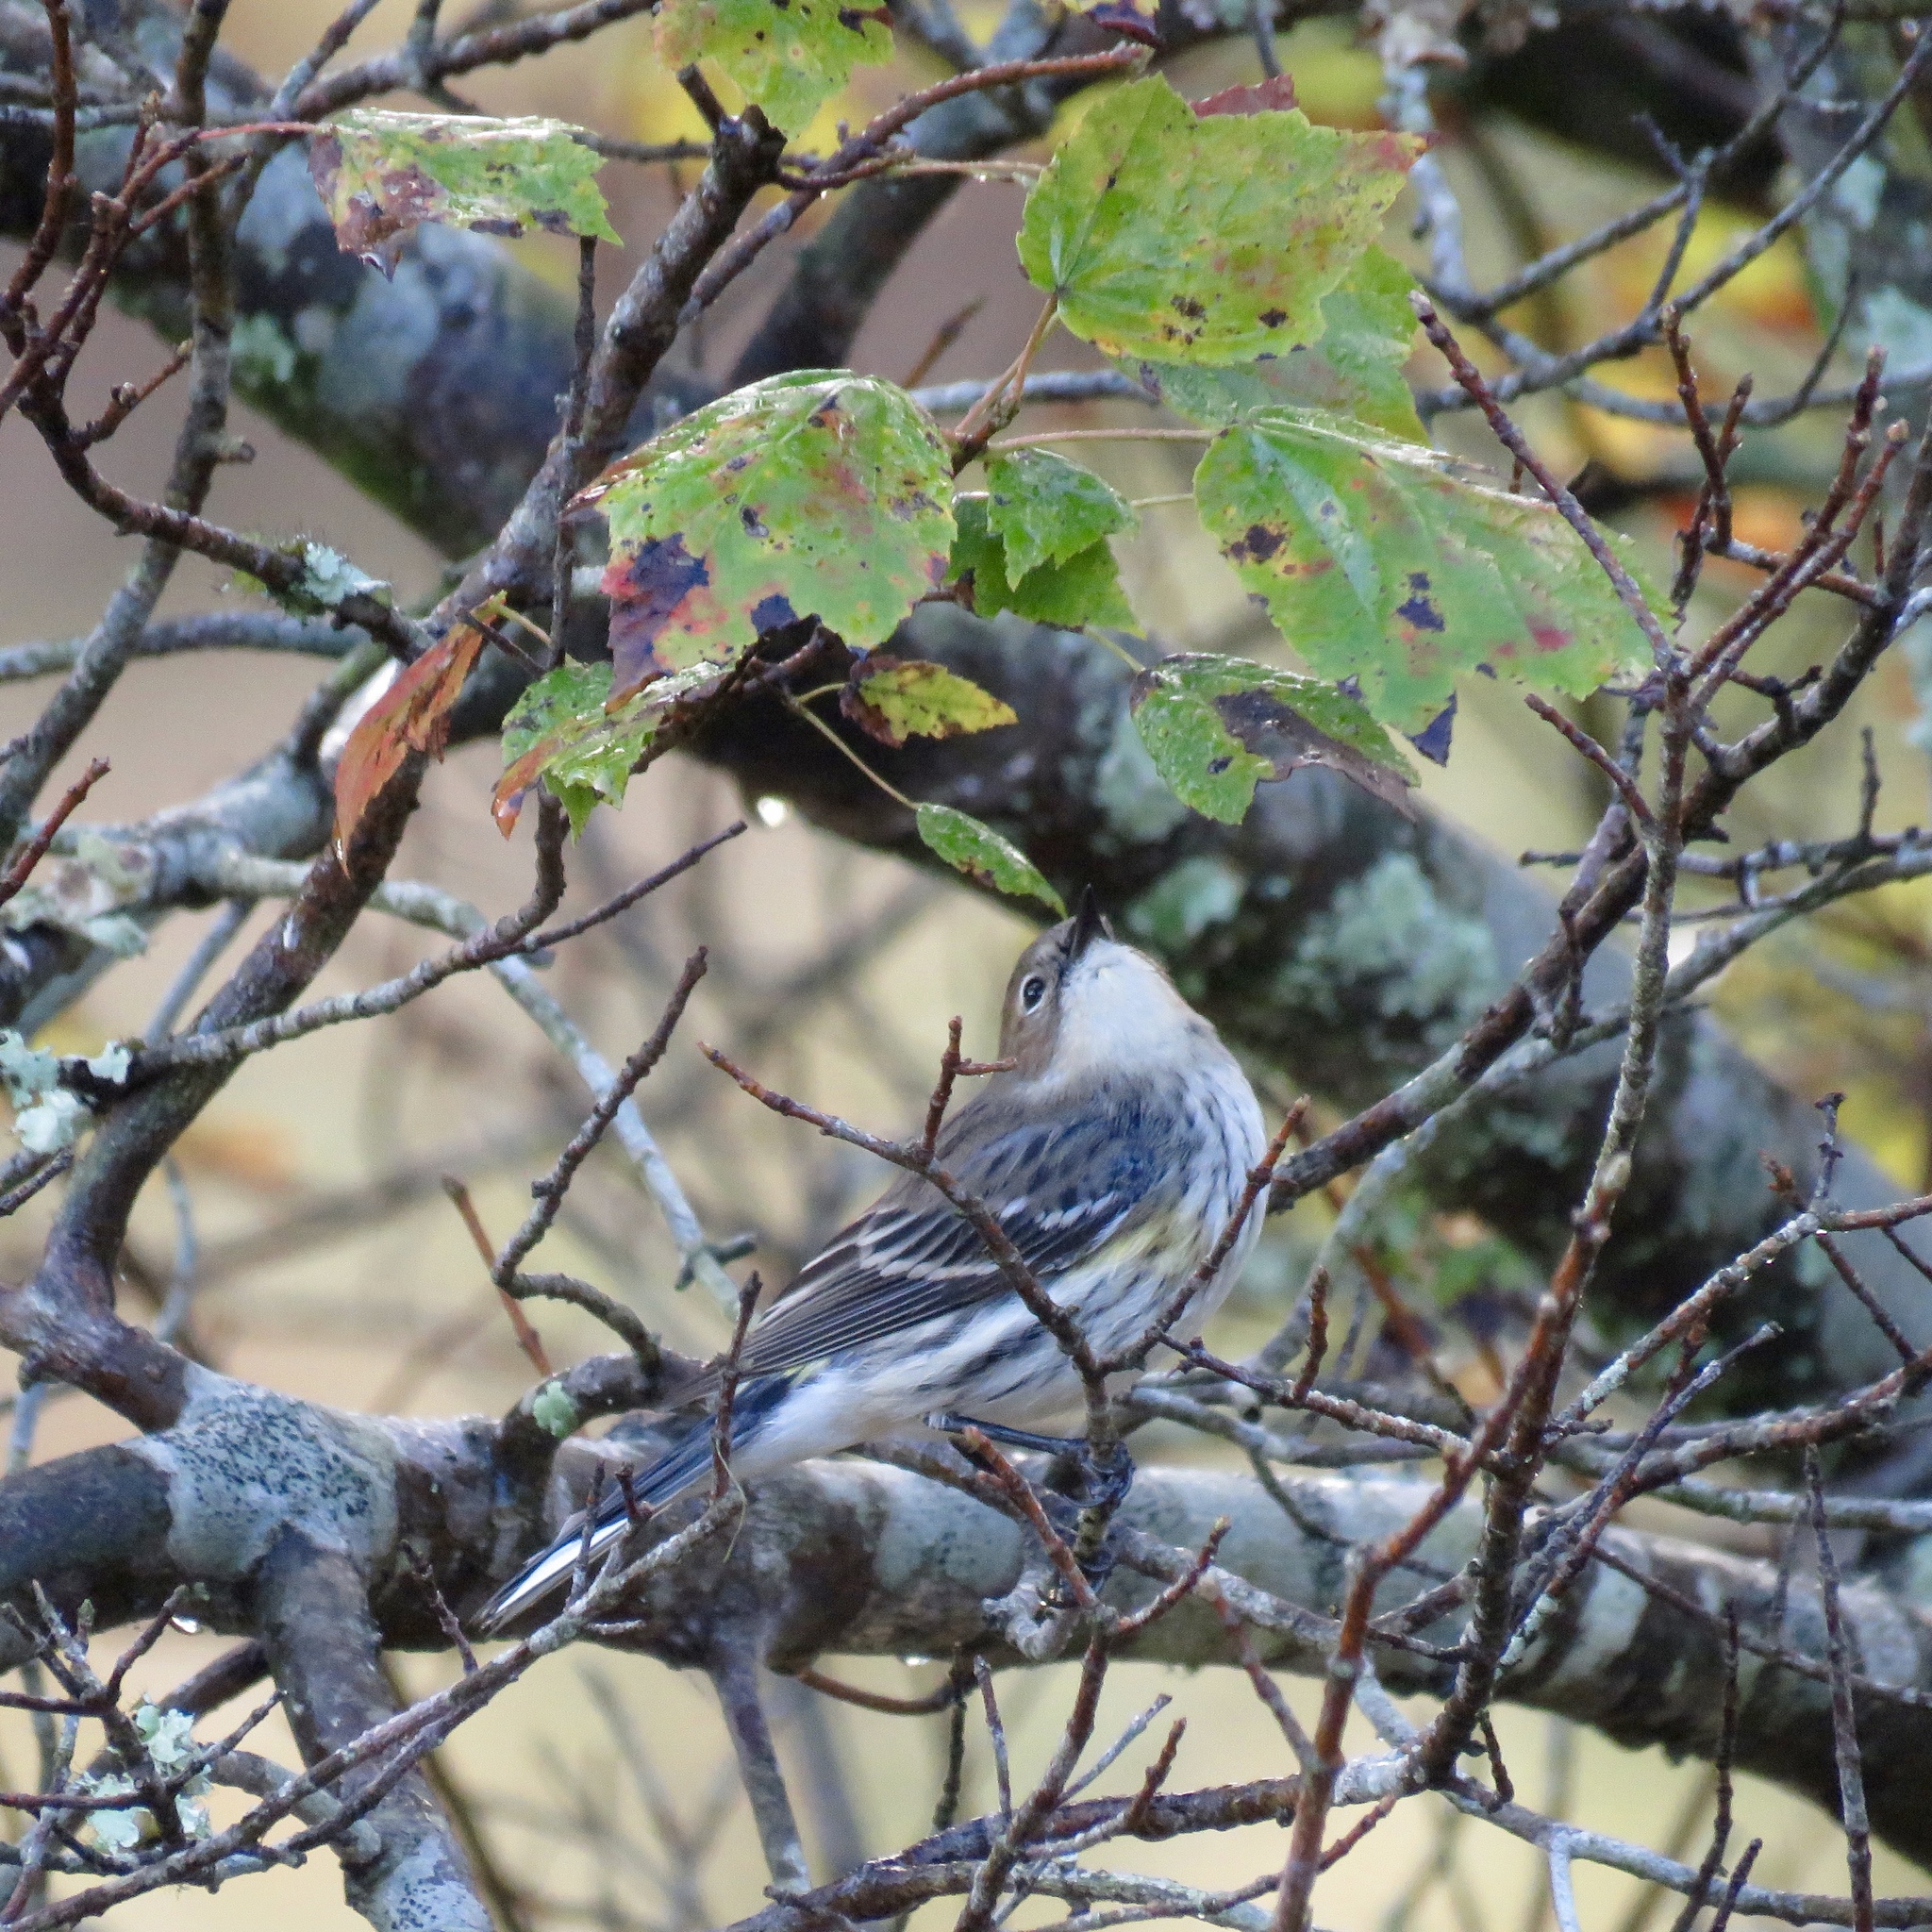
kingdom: Animalia
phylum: Chordata
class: Aves
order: Passeriformes
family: Parulidae
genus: Setophaga
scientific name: Setophaga coronata
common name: Myrtle warbler
